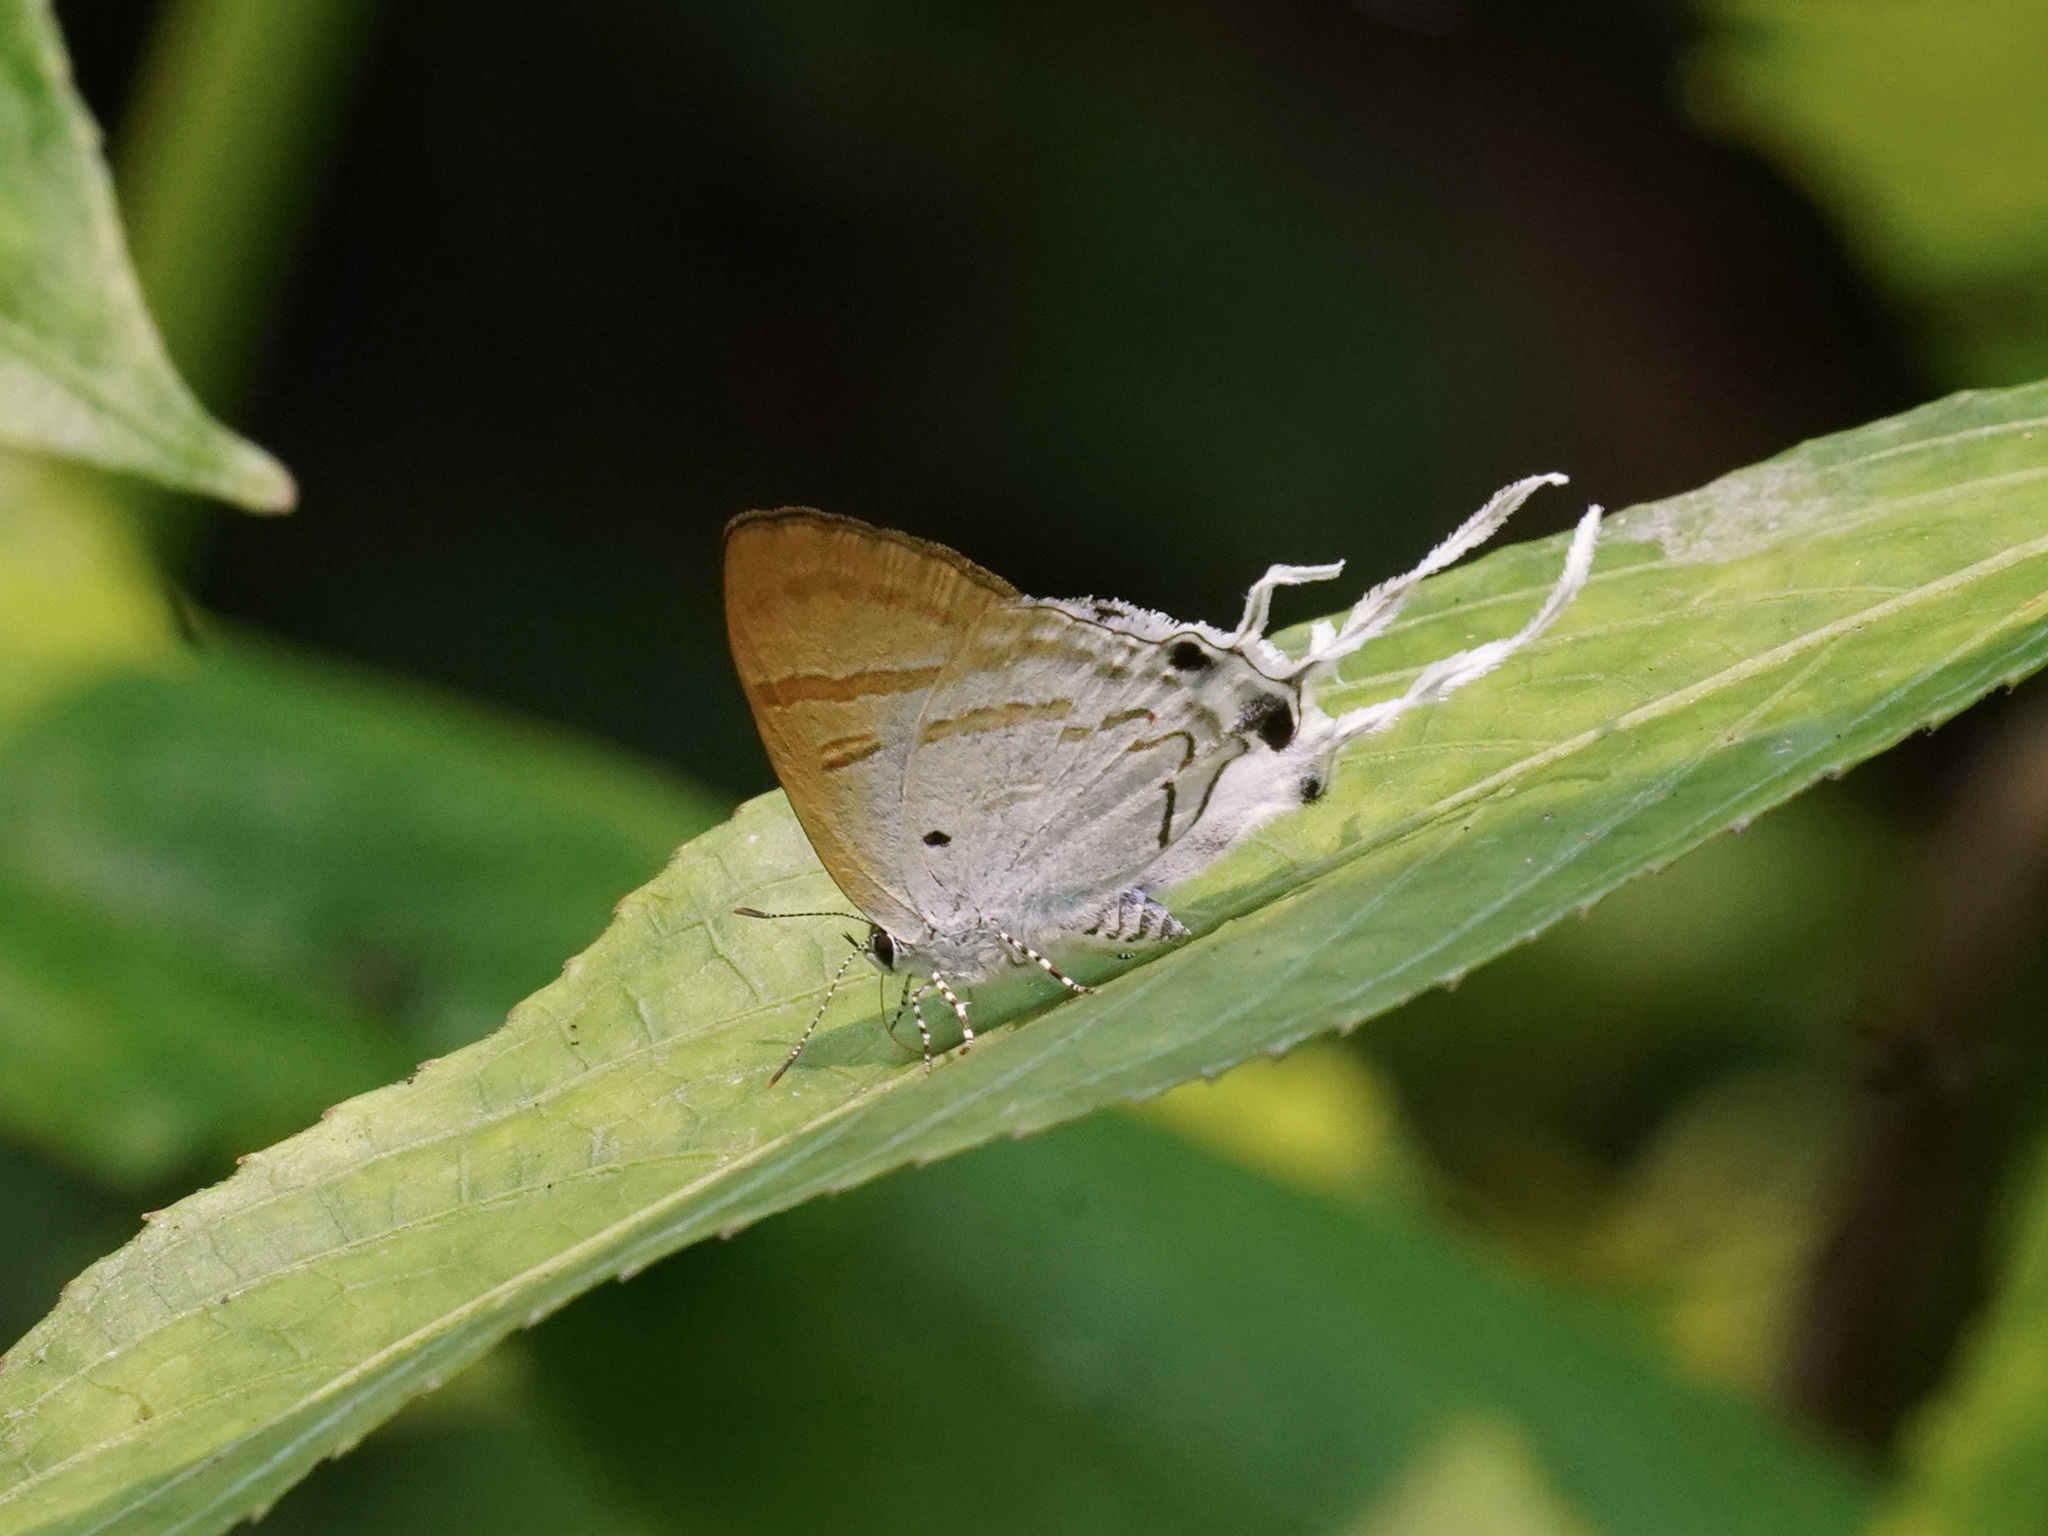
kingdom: Animalia
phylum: Arthropoda
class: Insecta
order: Lepidoptera
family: Lycaenidae
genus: Zeltus
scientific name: Zeltus amasa
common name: Fluffy tit
